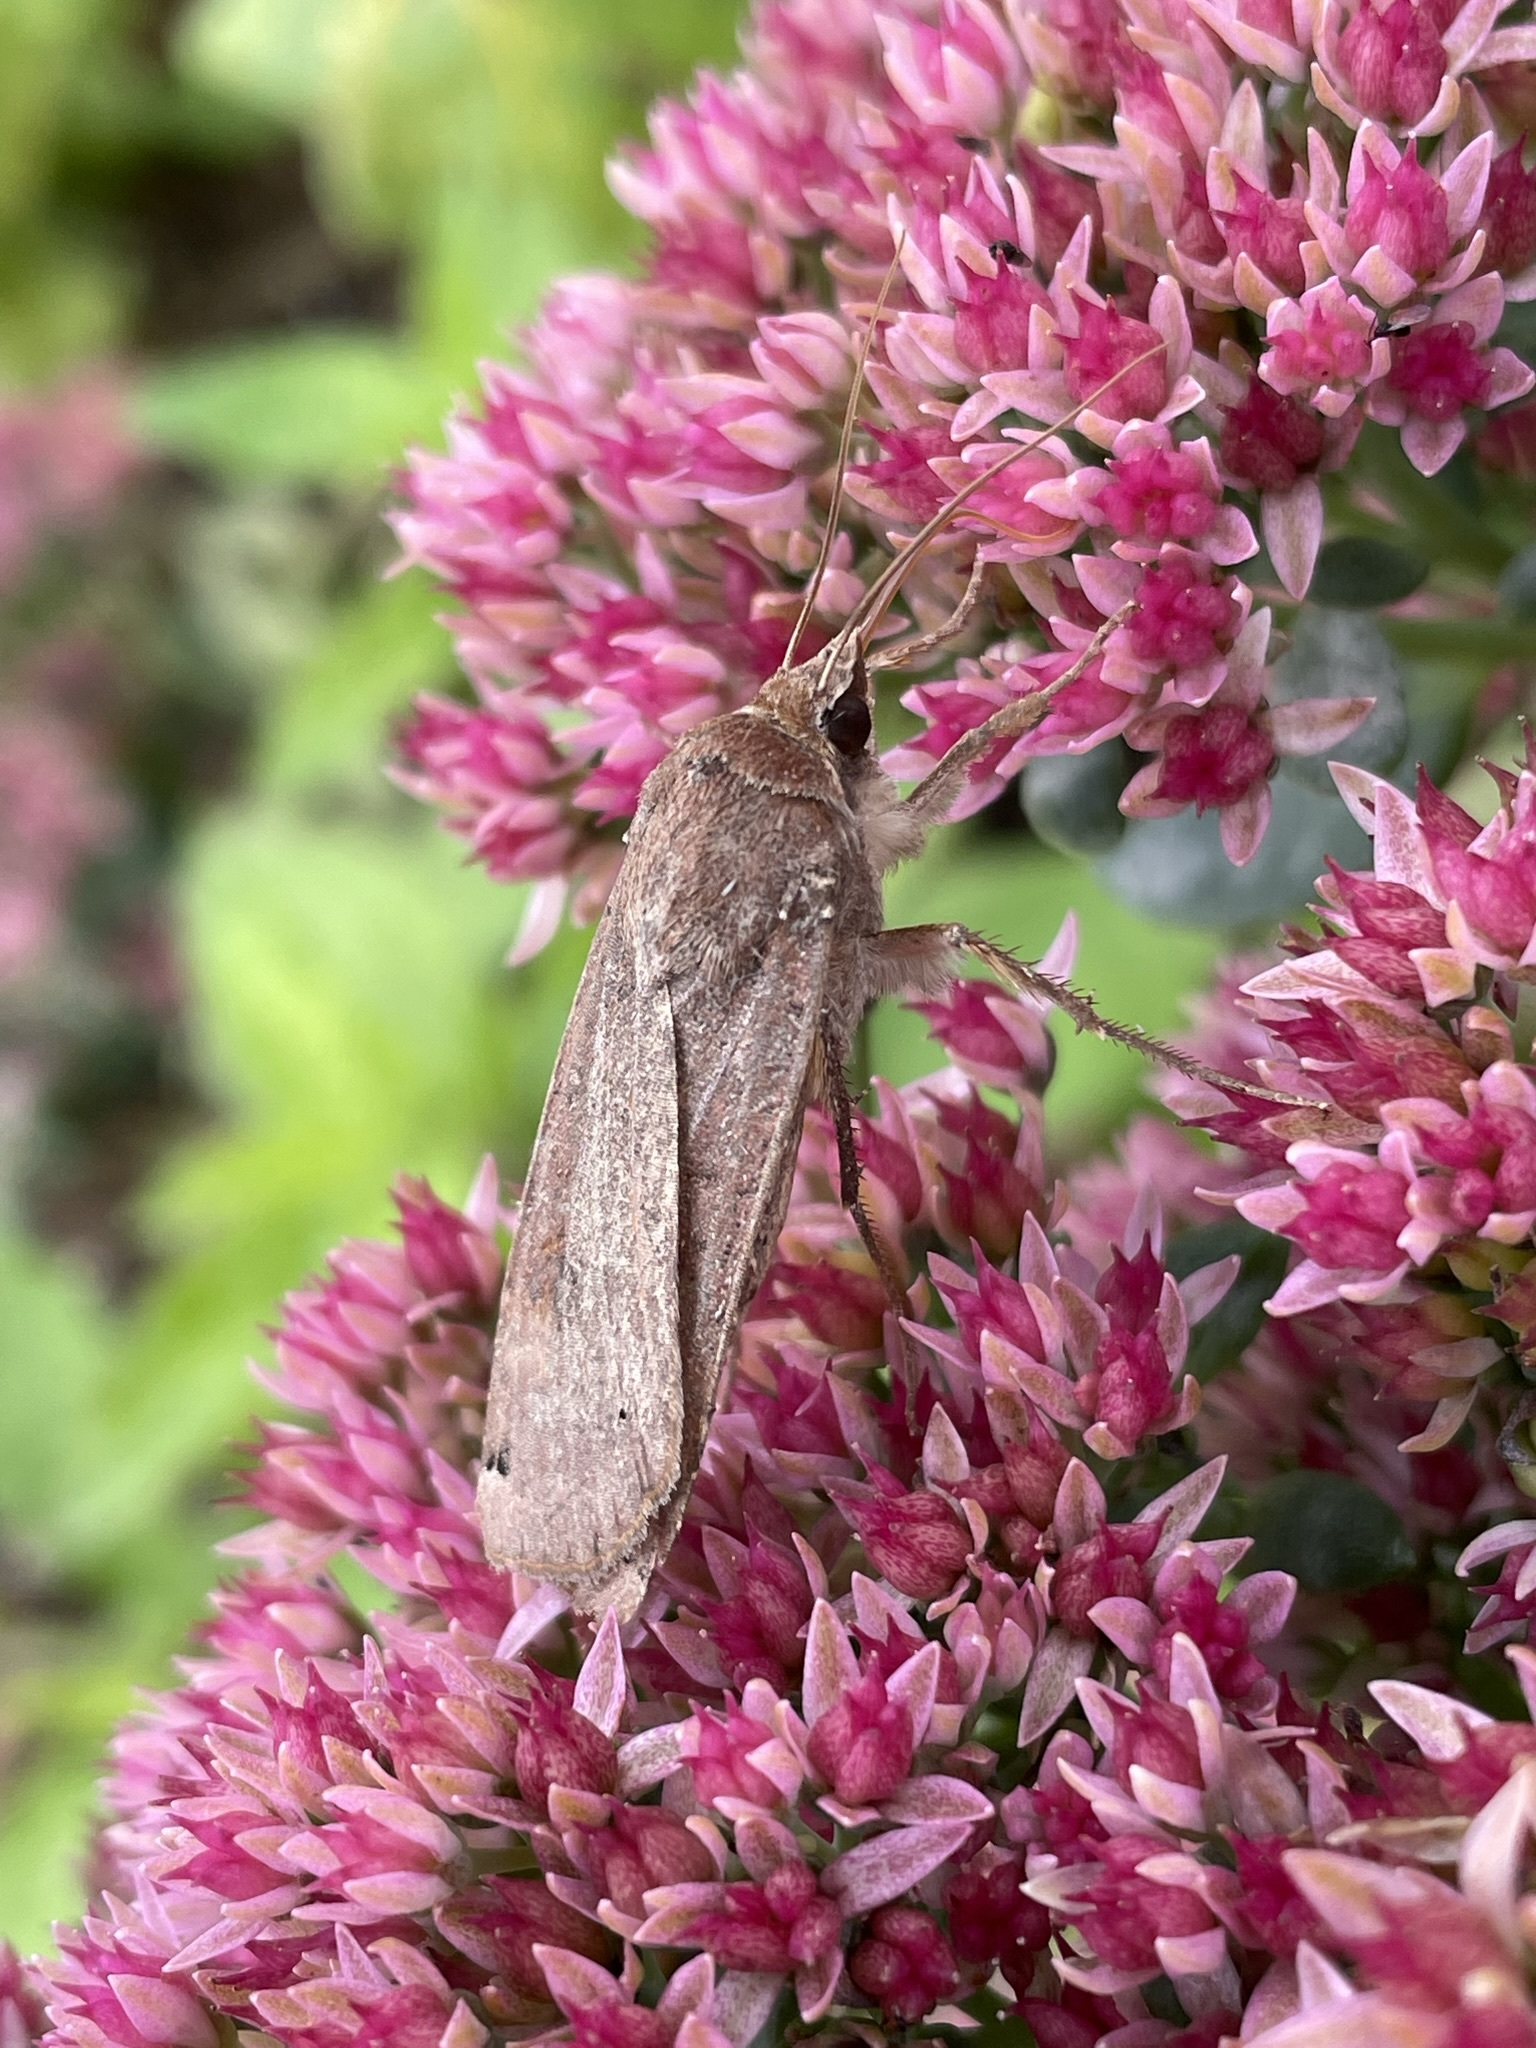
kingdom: Animalia
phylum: Arthropoda
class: Insecta
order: Lepidoptera
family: Noctuidae
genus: Noctua
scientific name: Noctua pronuba
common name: Large yellow underwing
